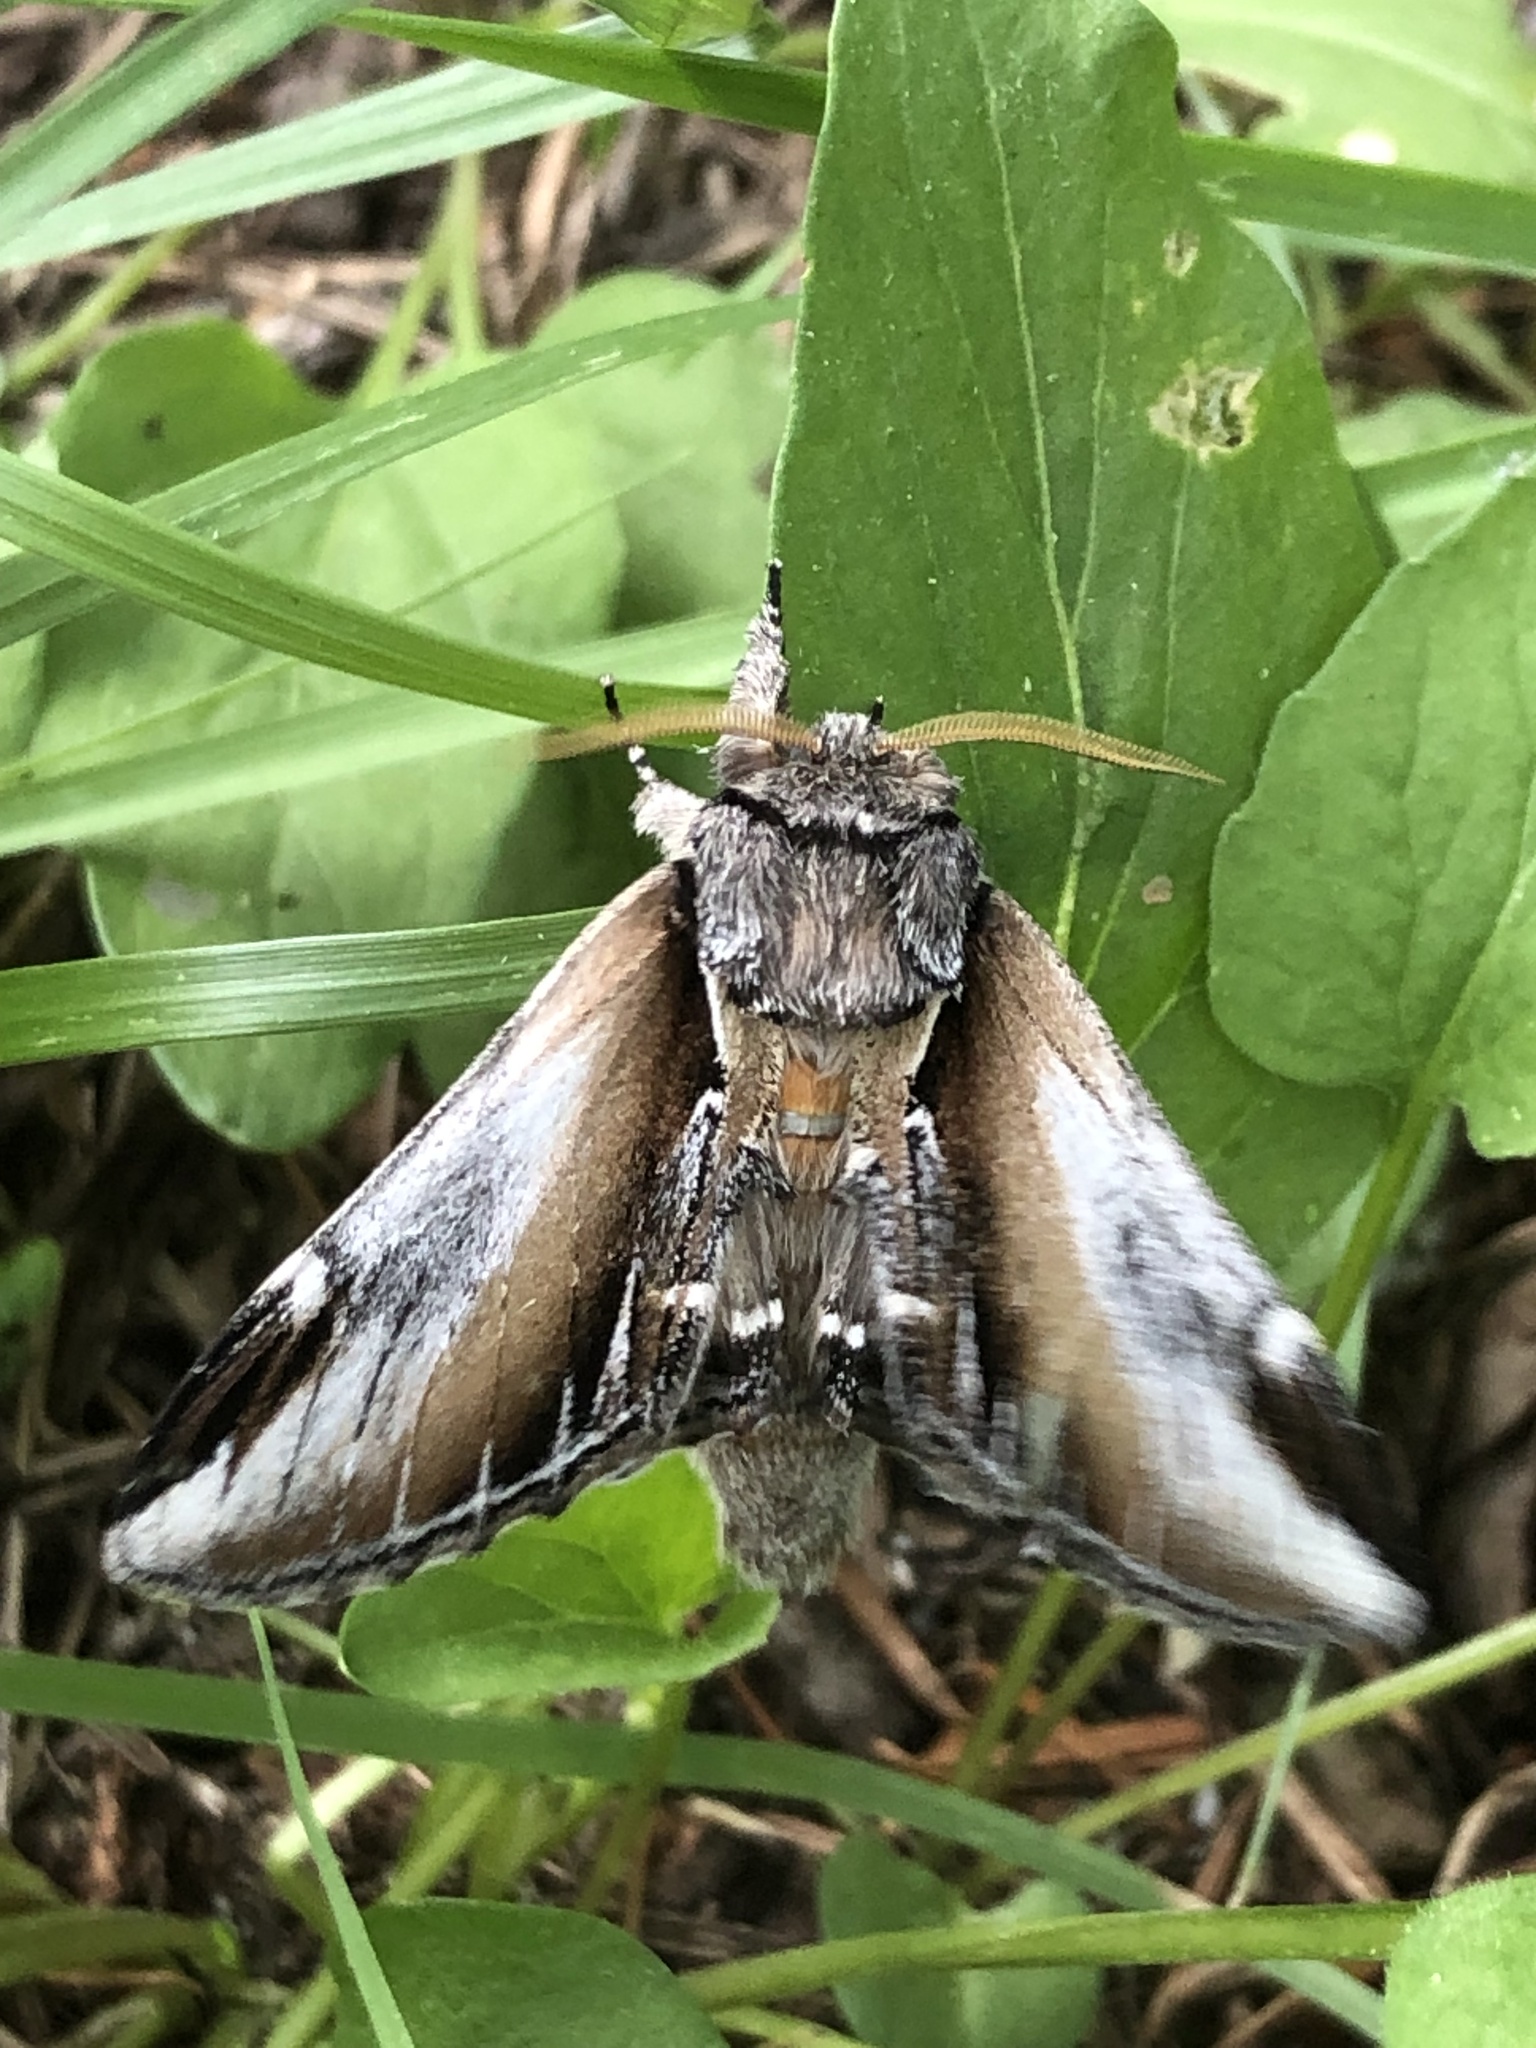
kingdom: Animalia
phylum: Arthropoda
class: Insecta
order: Lepidoptera
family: Notodontidae
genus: Pheosia
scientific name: Pheosia rimosa
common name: Black-rimmed prominent
